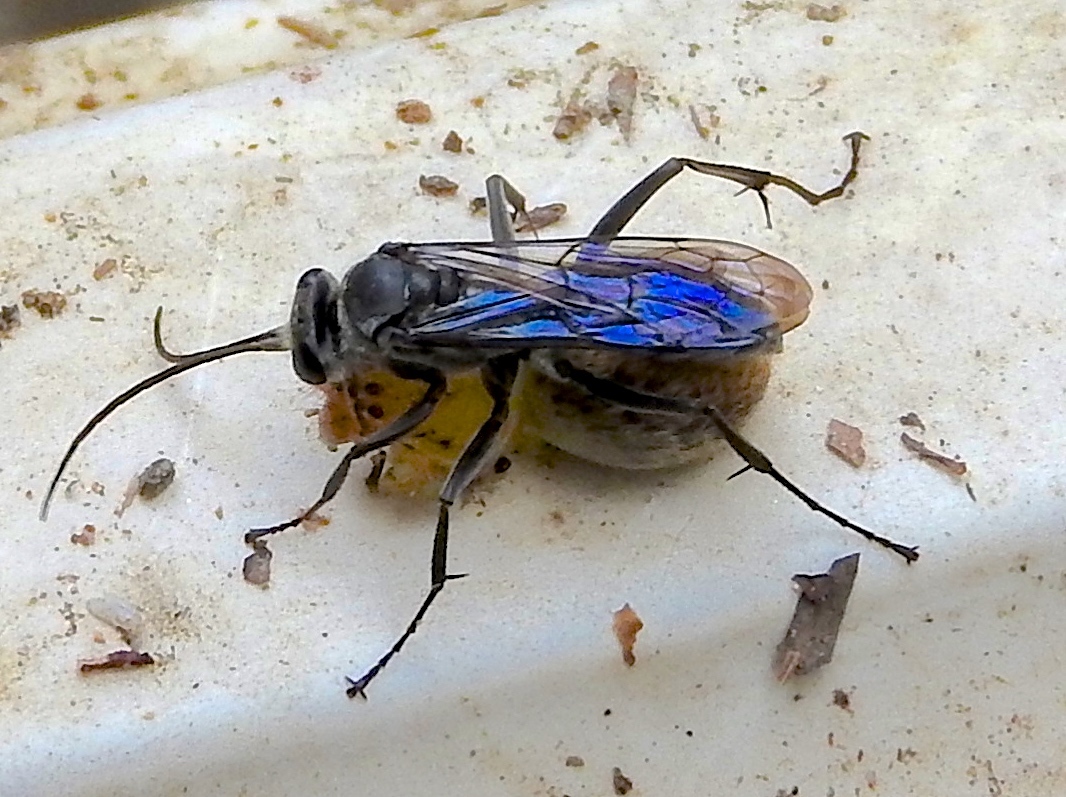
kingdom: Animalia
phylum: Arthropoda
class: Insecta
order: Hymenoptera
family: Pompilidae
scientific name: Pompilidae
